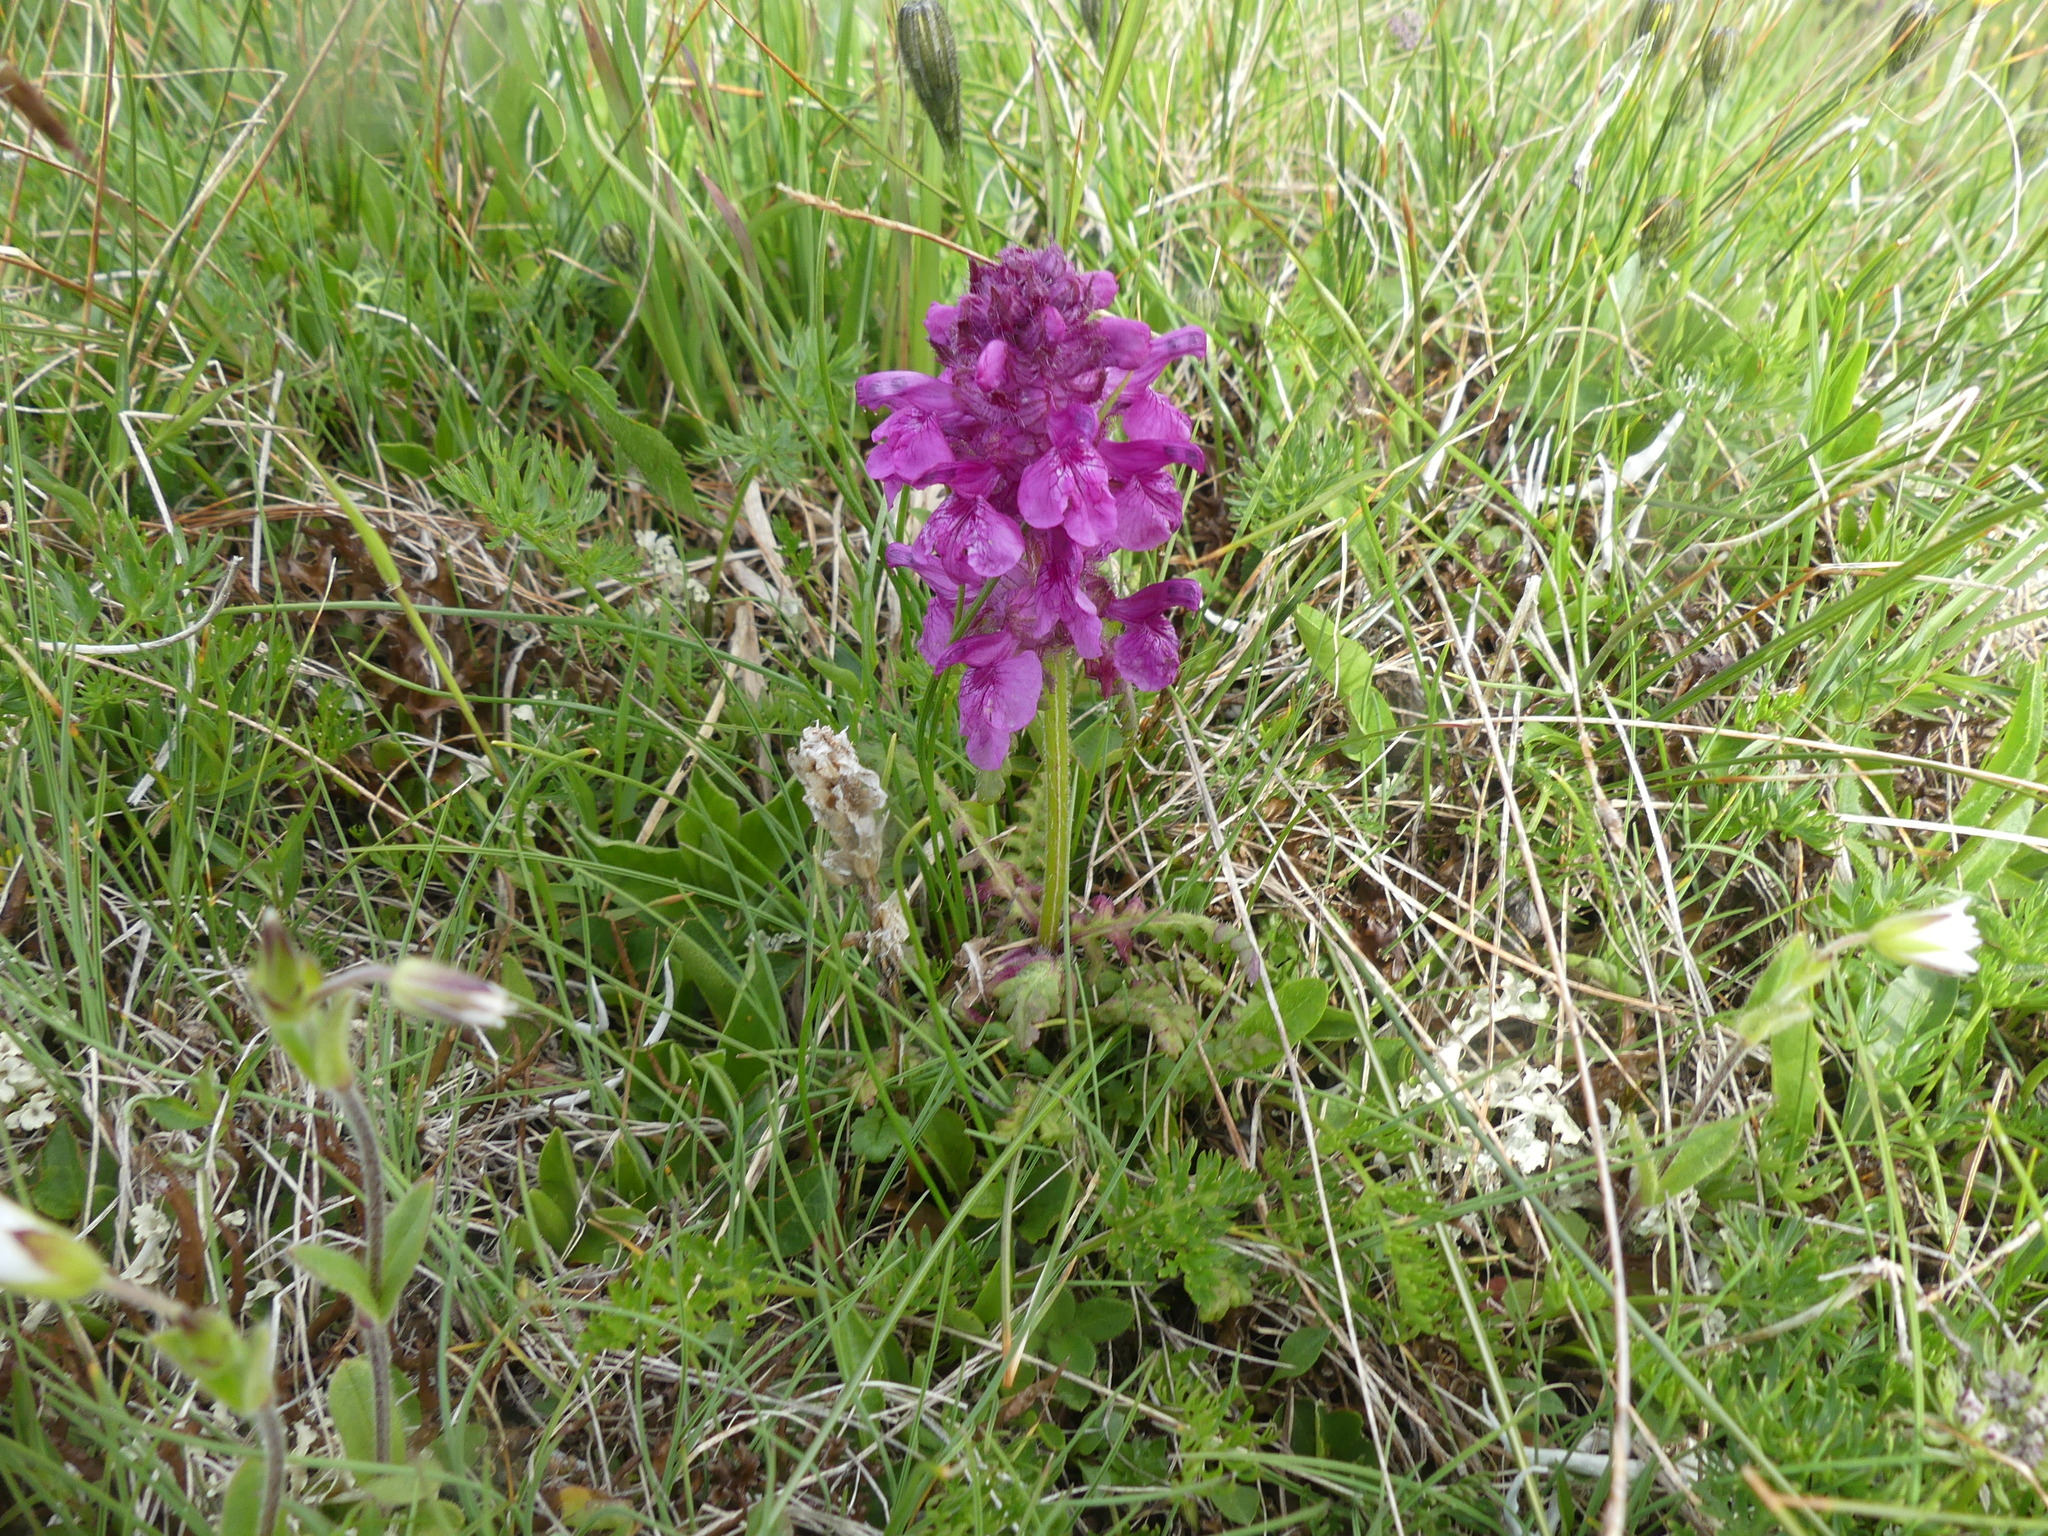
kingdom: Plantae
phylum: Tracheophyta
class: Magnoliopsida
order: Lamiales
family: Orobanchaceae
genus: Pedicularis
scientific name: Pedicularis verticillata
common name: Whorled lousewort
